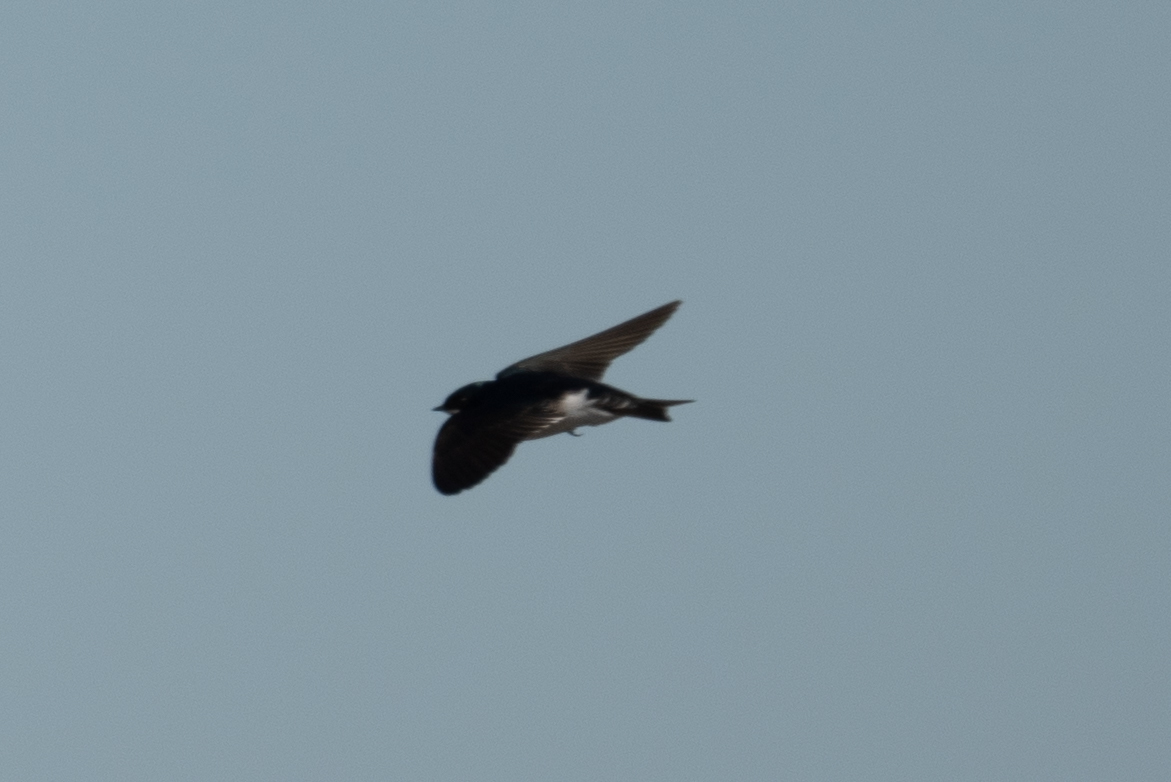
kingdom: Animalia
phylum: Chordata
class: Aves
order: Passeriformes
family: Hirundinidae
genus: Tachycineta
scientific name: Tachycineta bicolor
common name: Tree swallow
